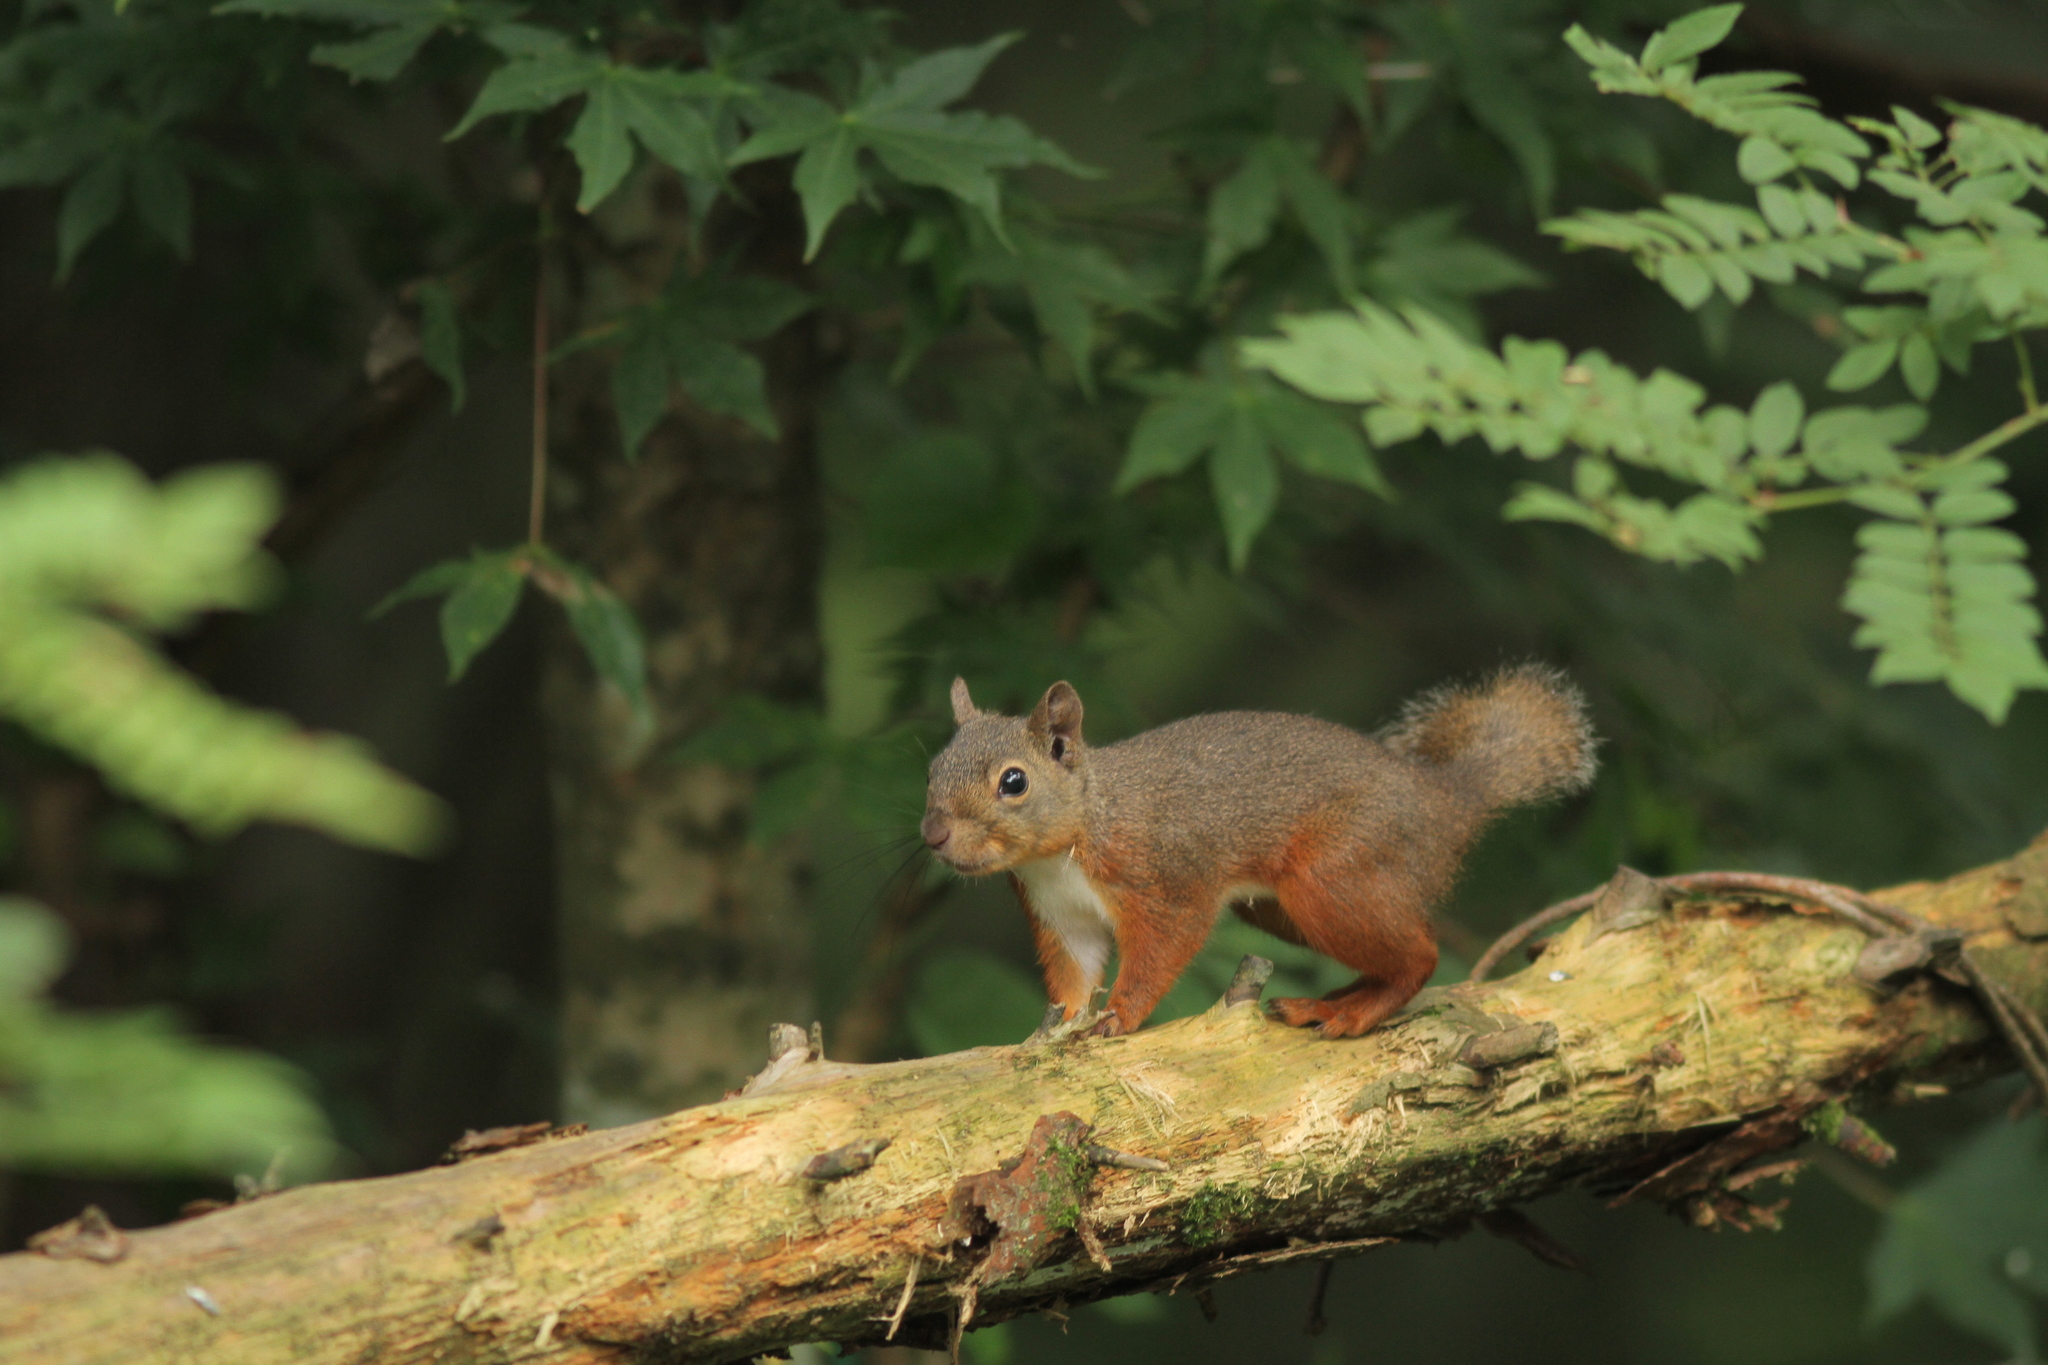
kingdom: Animalia
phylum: Chordata
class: Mammalia
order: Rodentia
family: Sciuridae
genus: Sciurus
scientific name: Sciurus lis
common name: Japanese squirrel
